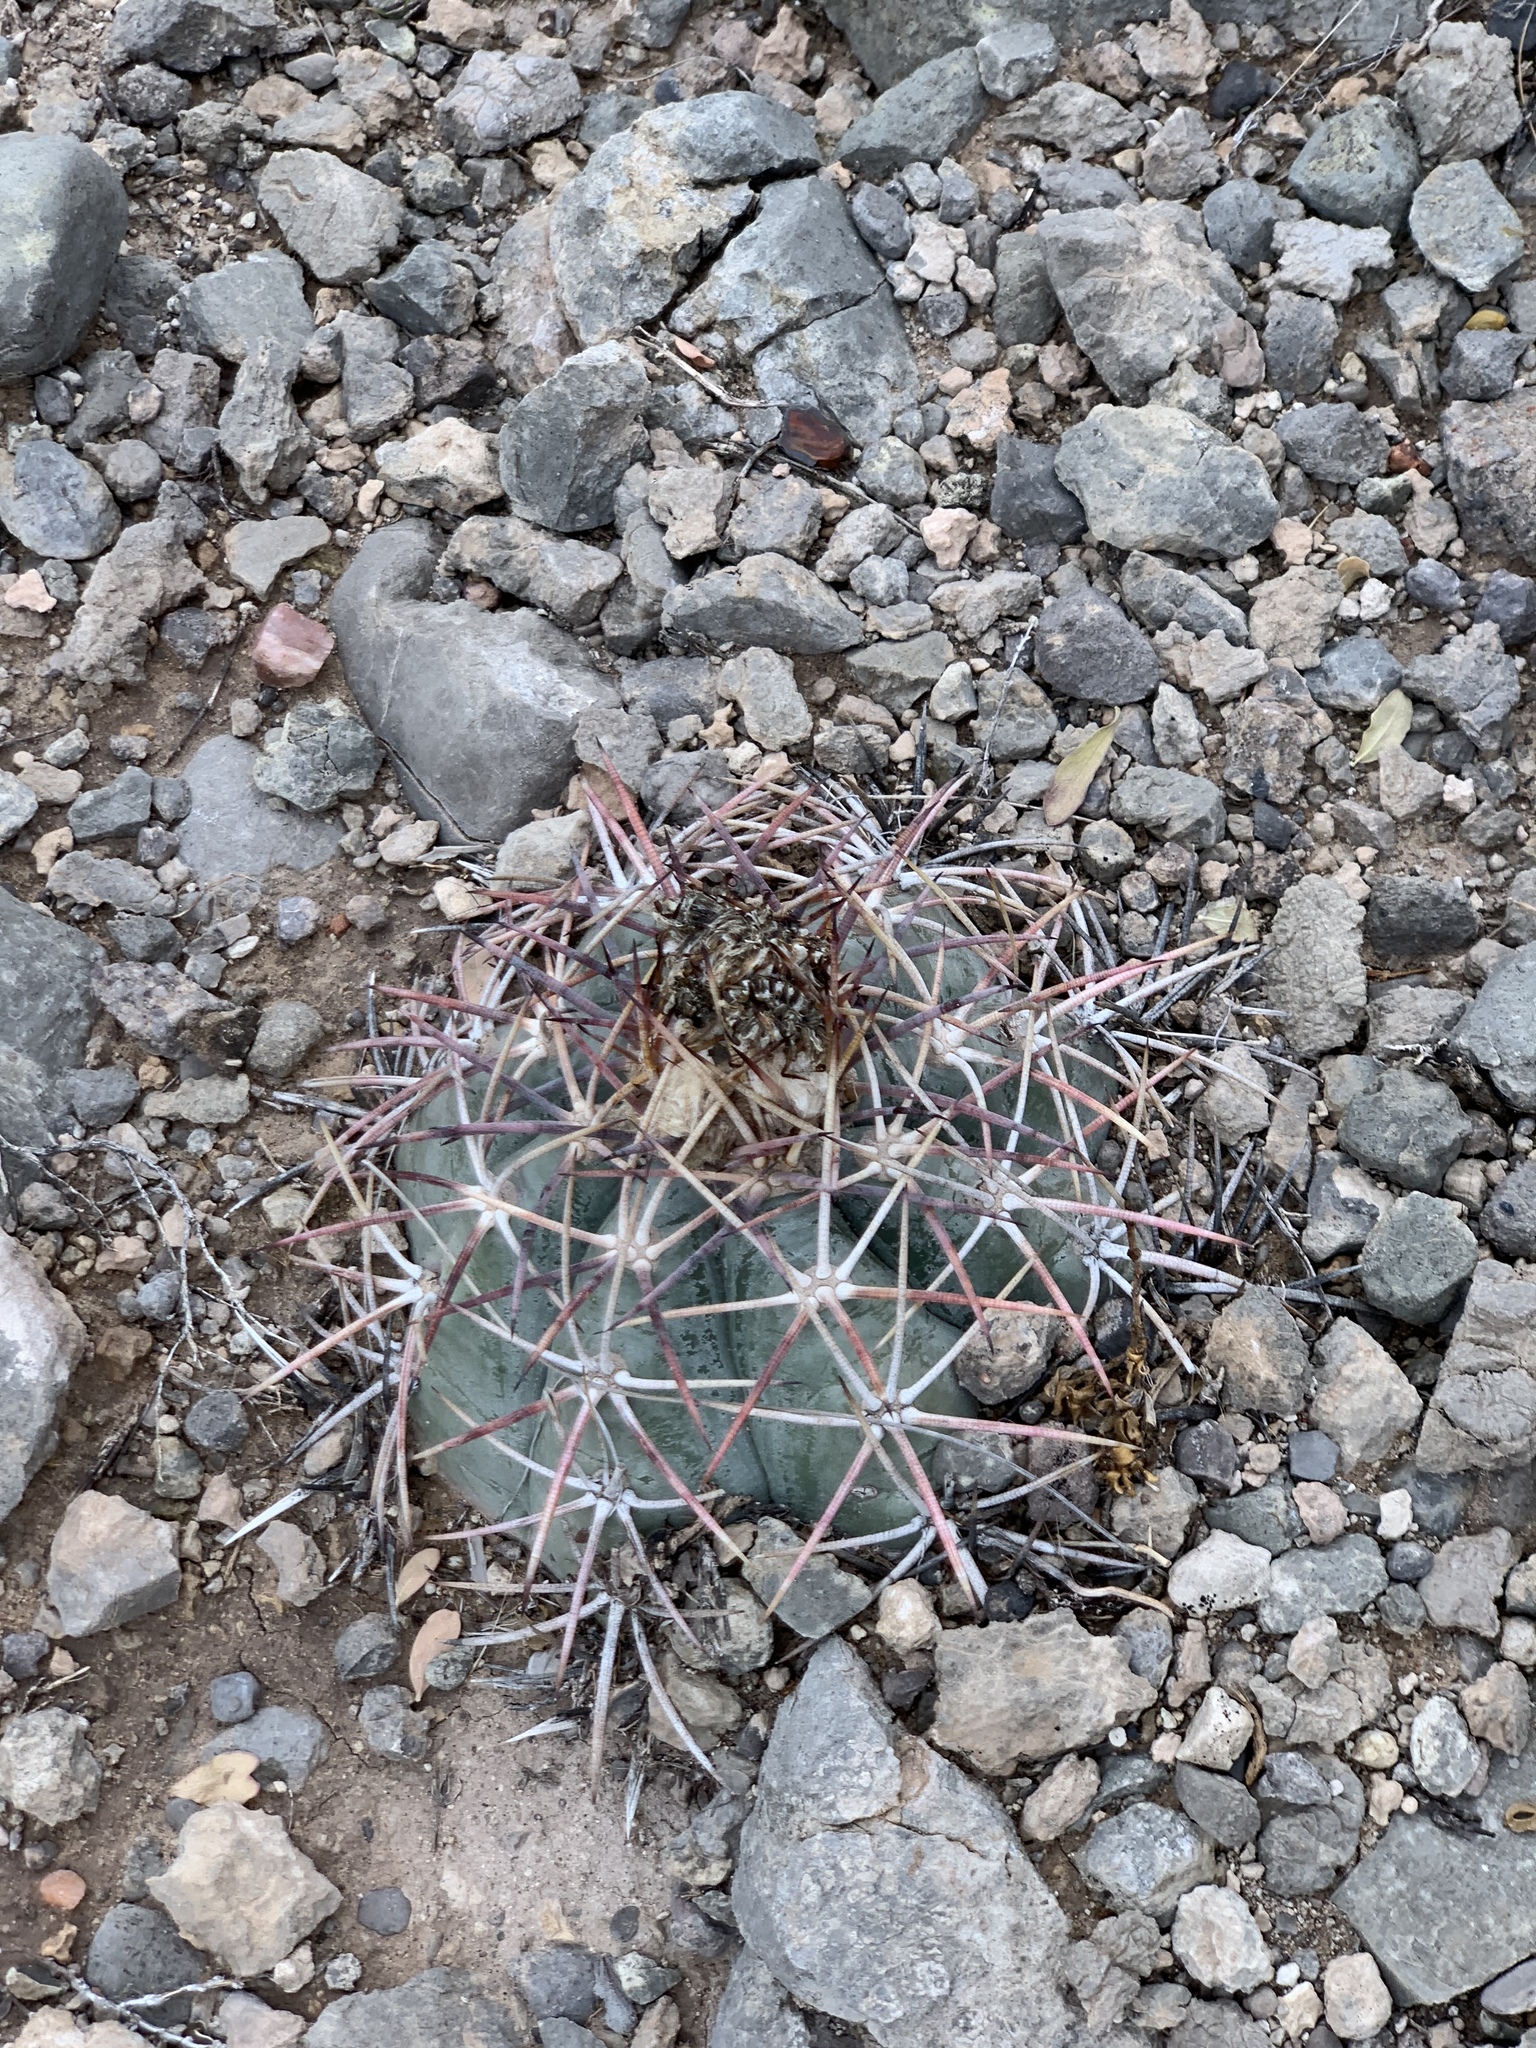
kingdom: Plantae
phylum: Tracheophyta
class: Magnoliopsida
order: Caryophyllales
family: Cactaceae
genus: Echinocactus
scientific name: Echinocactus horizonthalonius
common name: Devilshead
